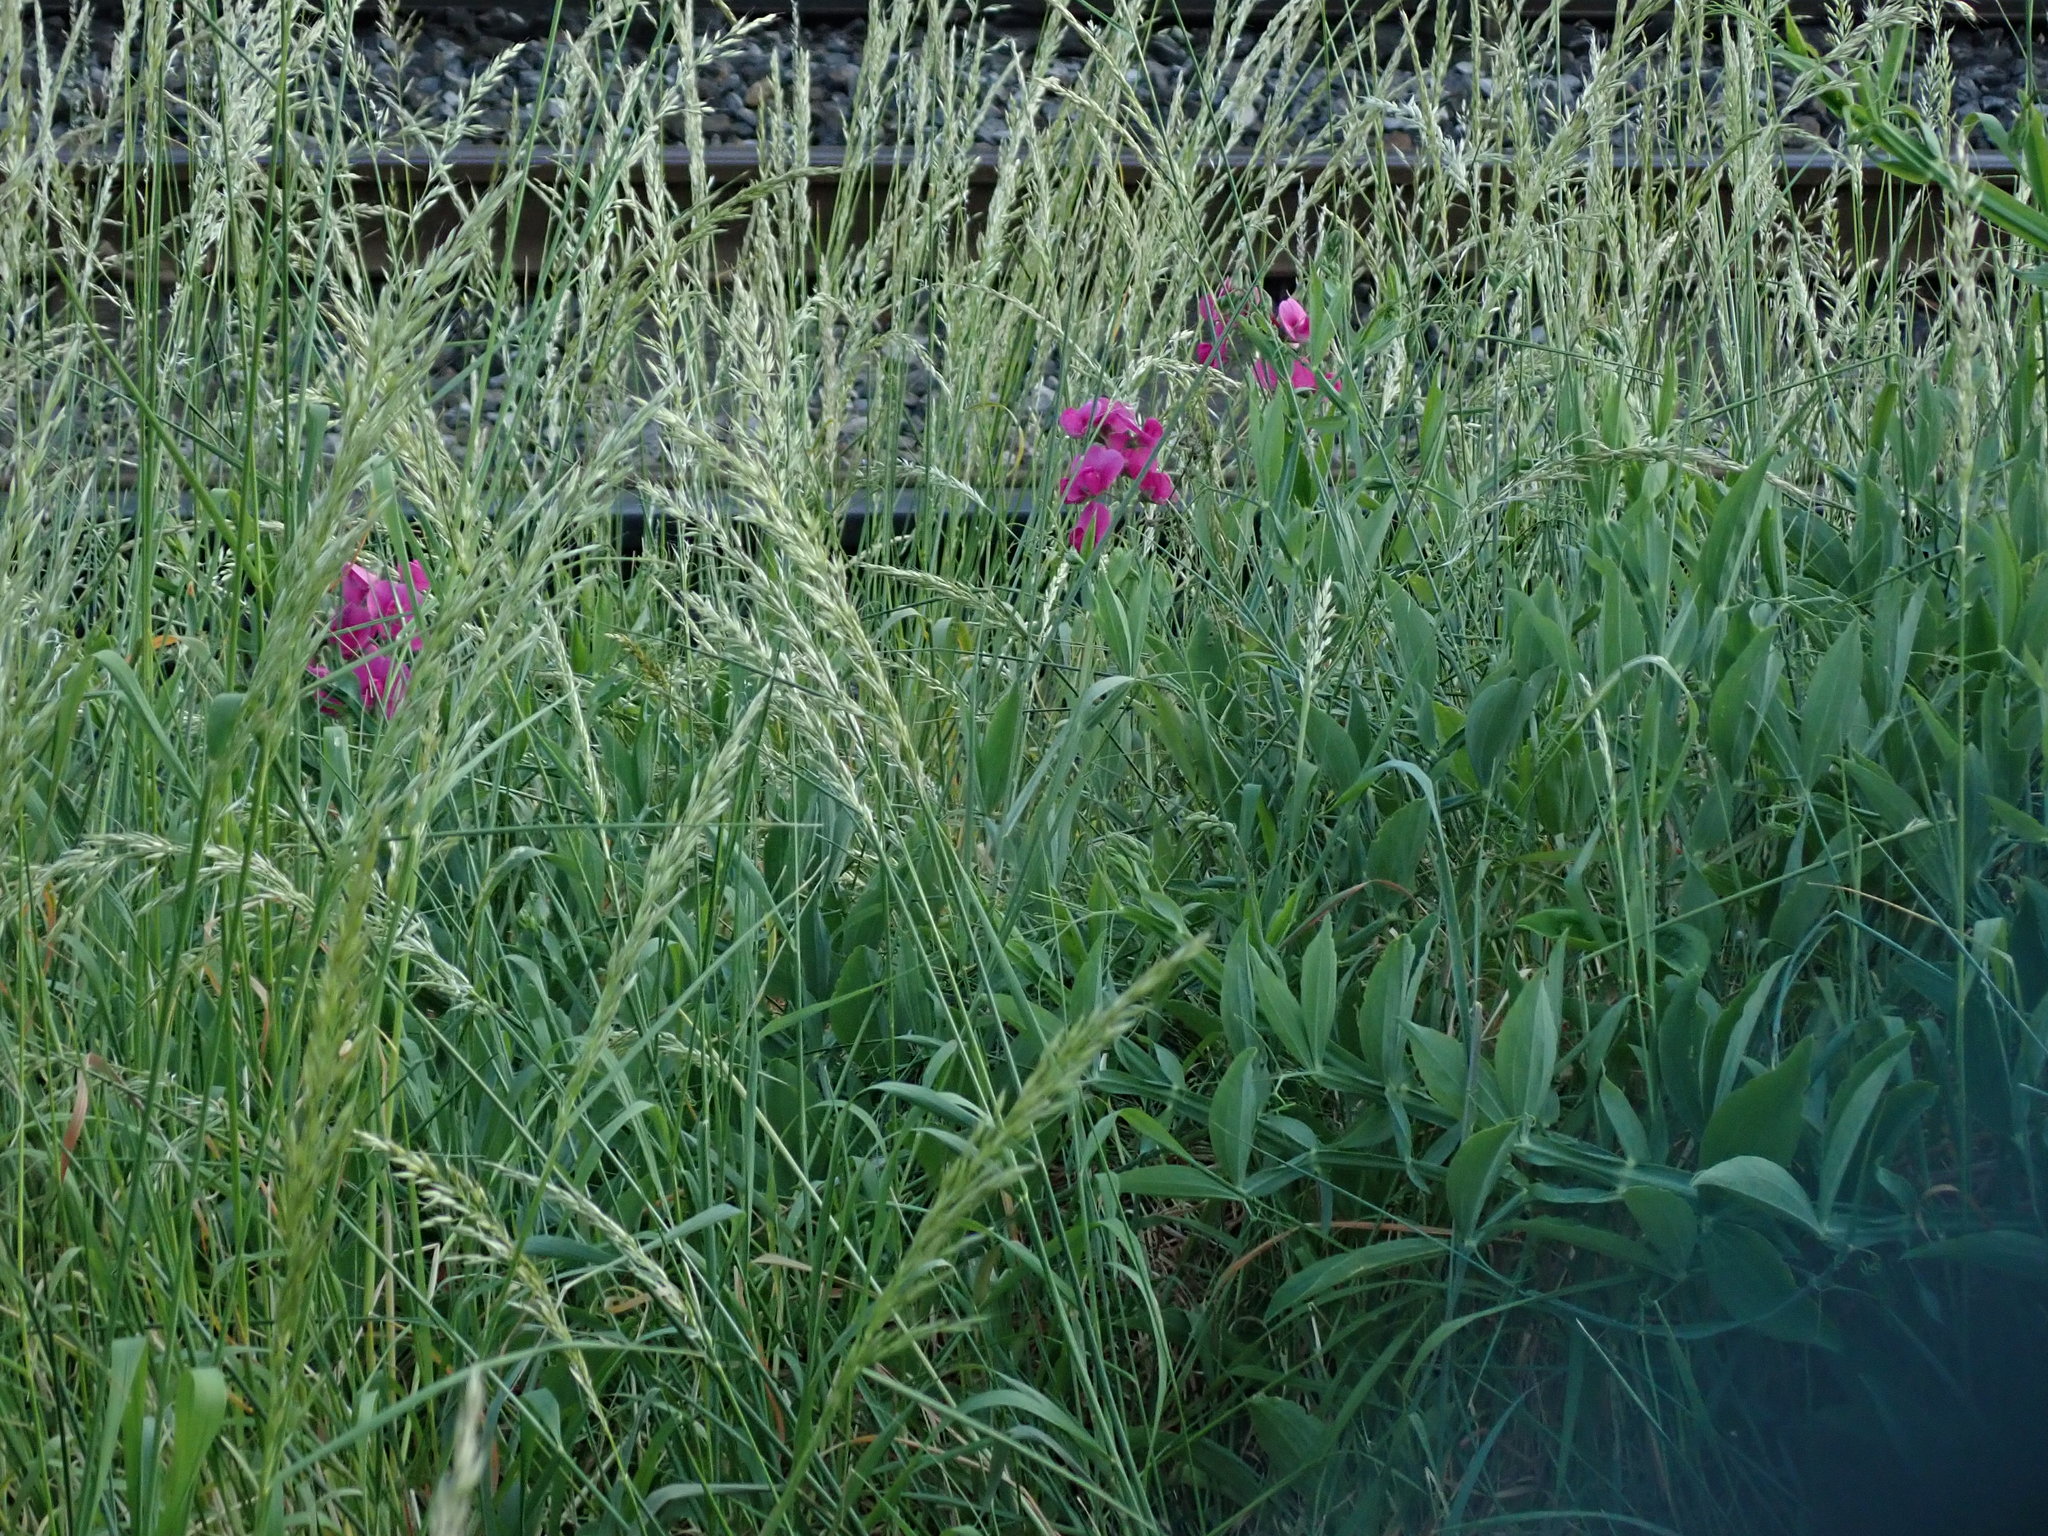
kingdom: Plantae
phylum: Tracheophyta
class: Magnoliopsida
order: Fabales
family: Fabaceae
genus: Lathyrus
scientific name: Lathyrus latifolius
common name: Perennial pea
